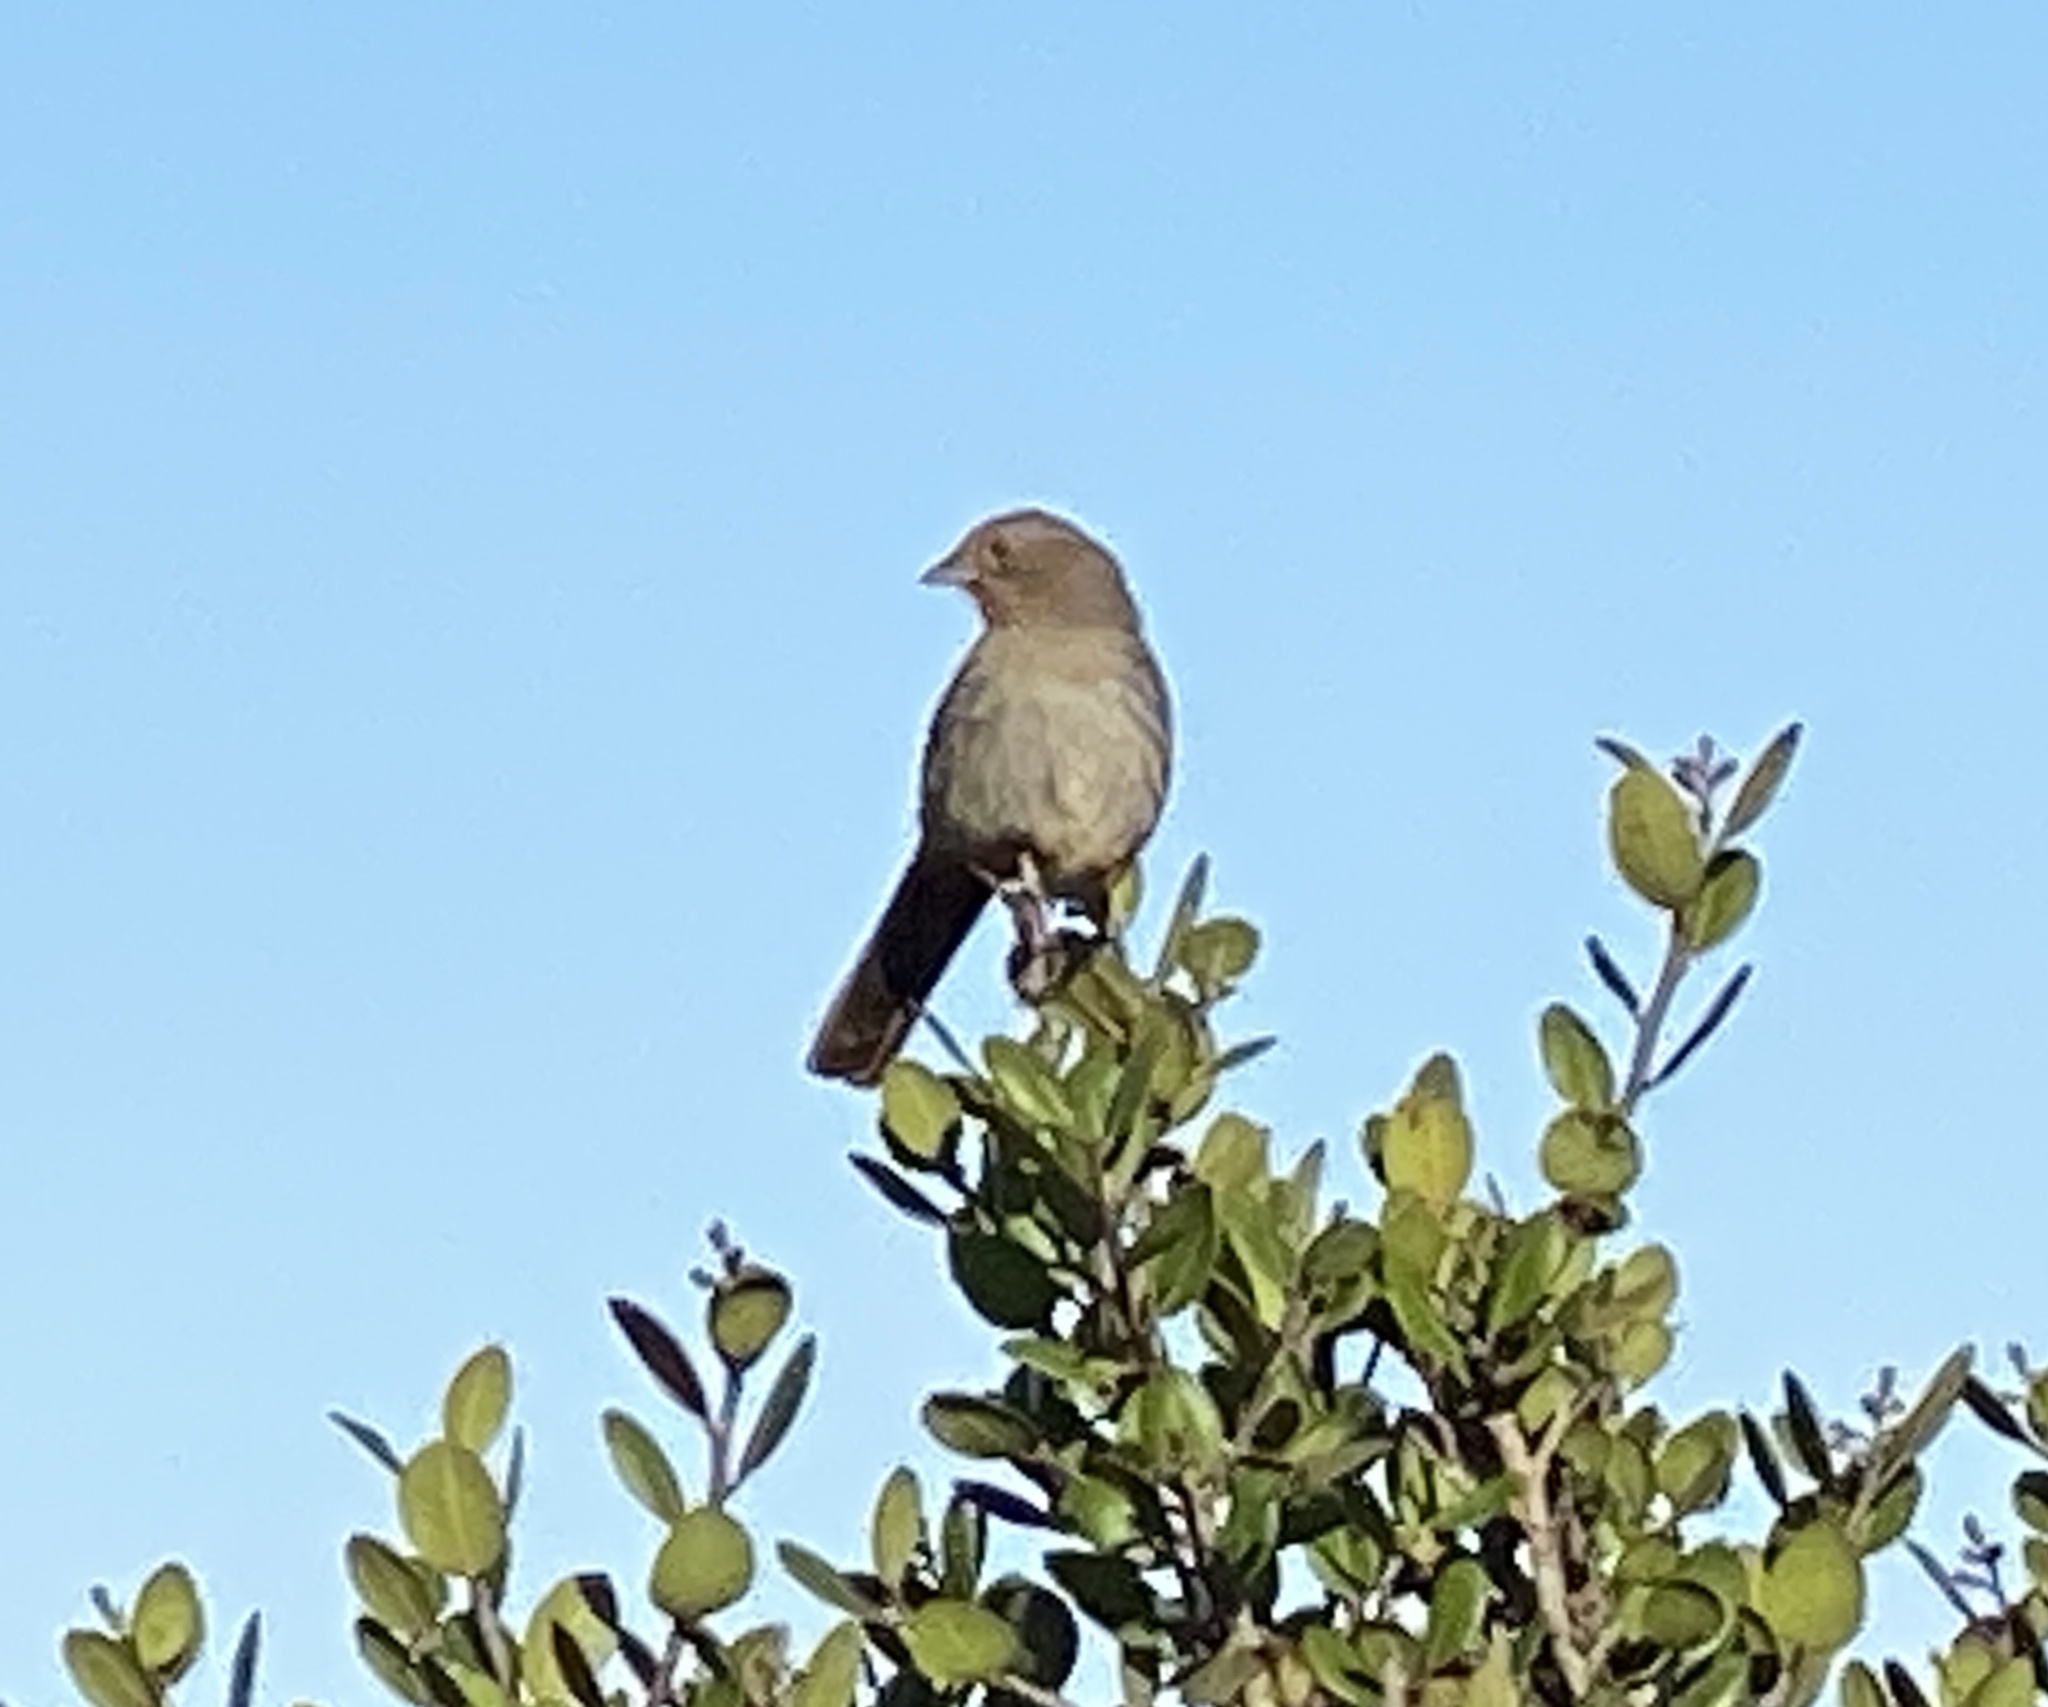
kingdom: Animalia
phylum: Chordata
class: Aves
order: Passeriformes
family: Passerellidae
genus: Melozone
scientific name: Melozone crissalis
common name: California towhee
